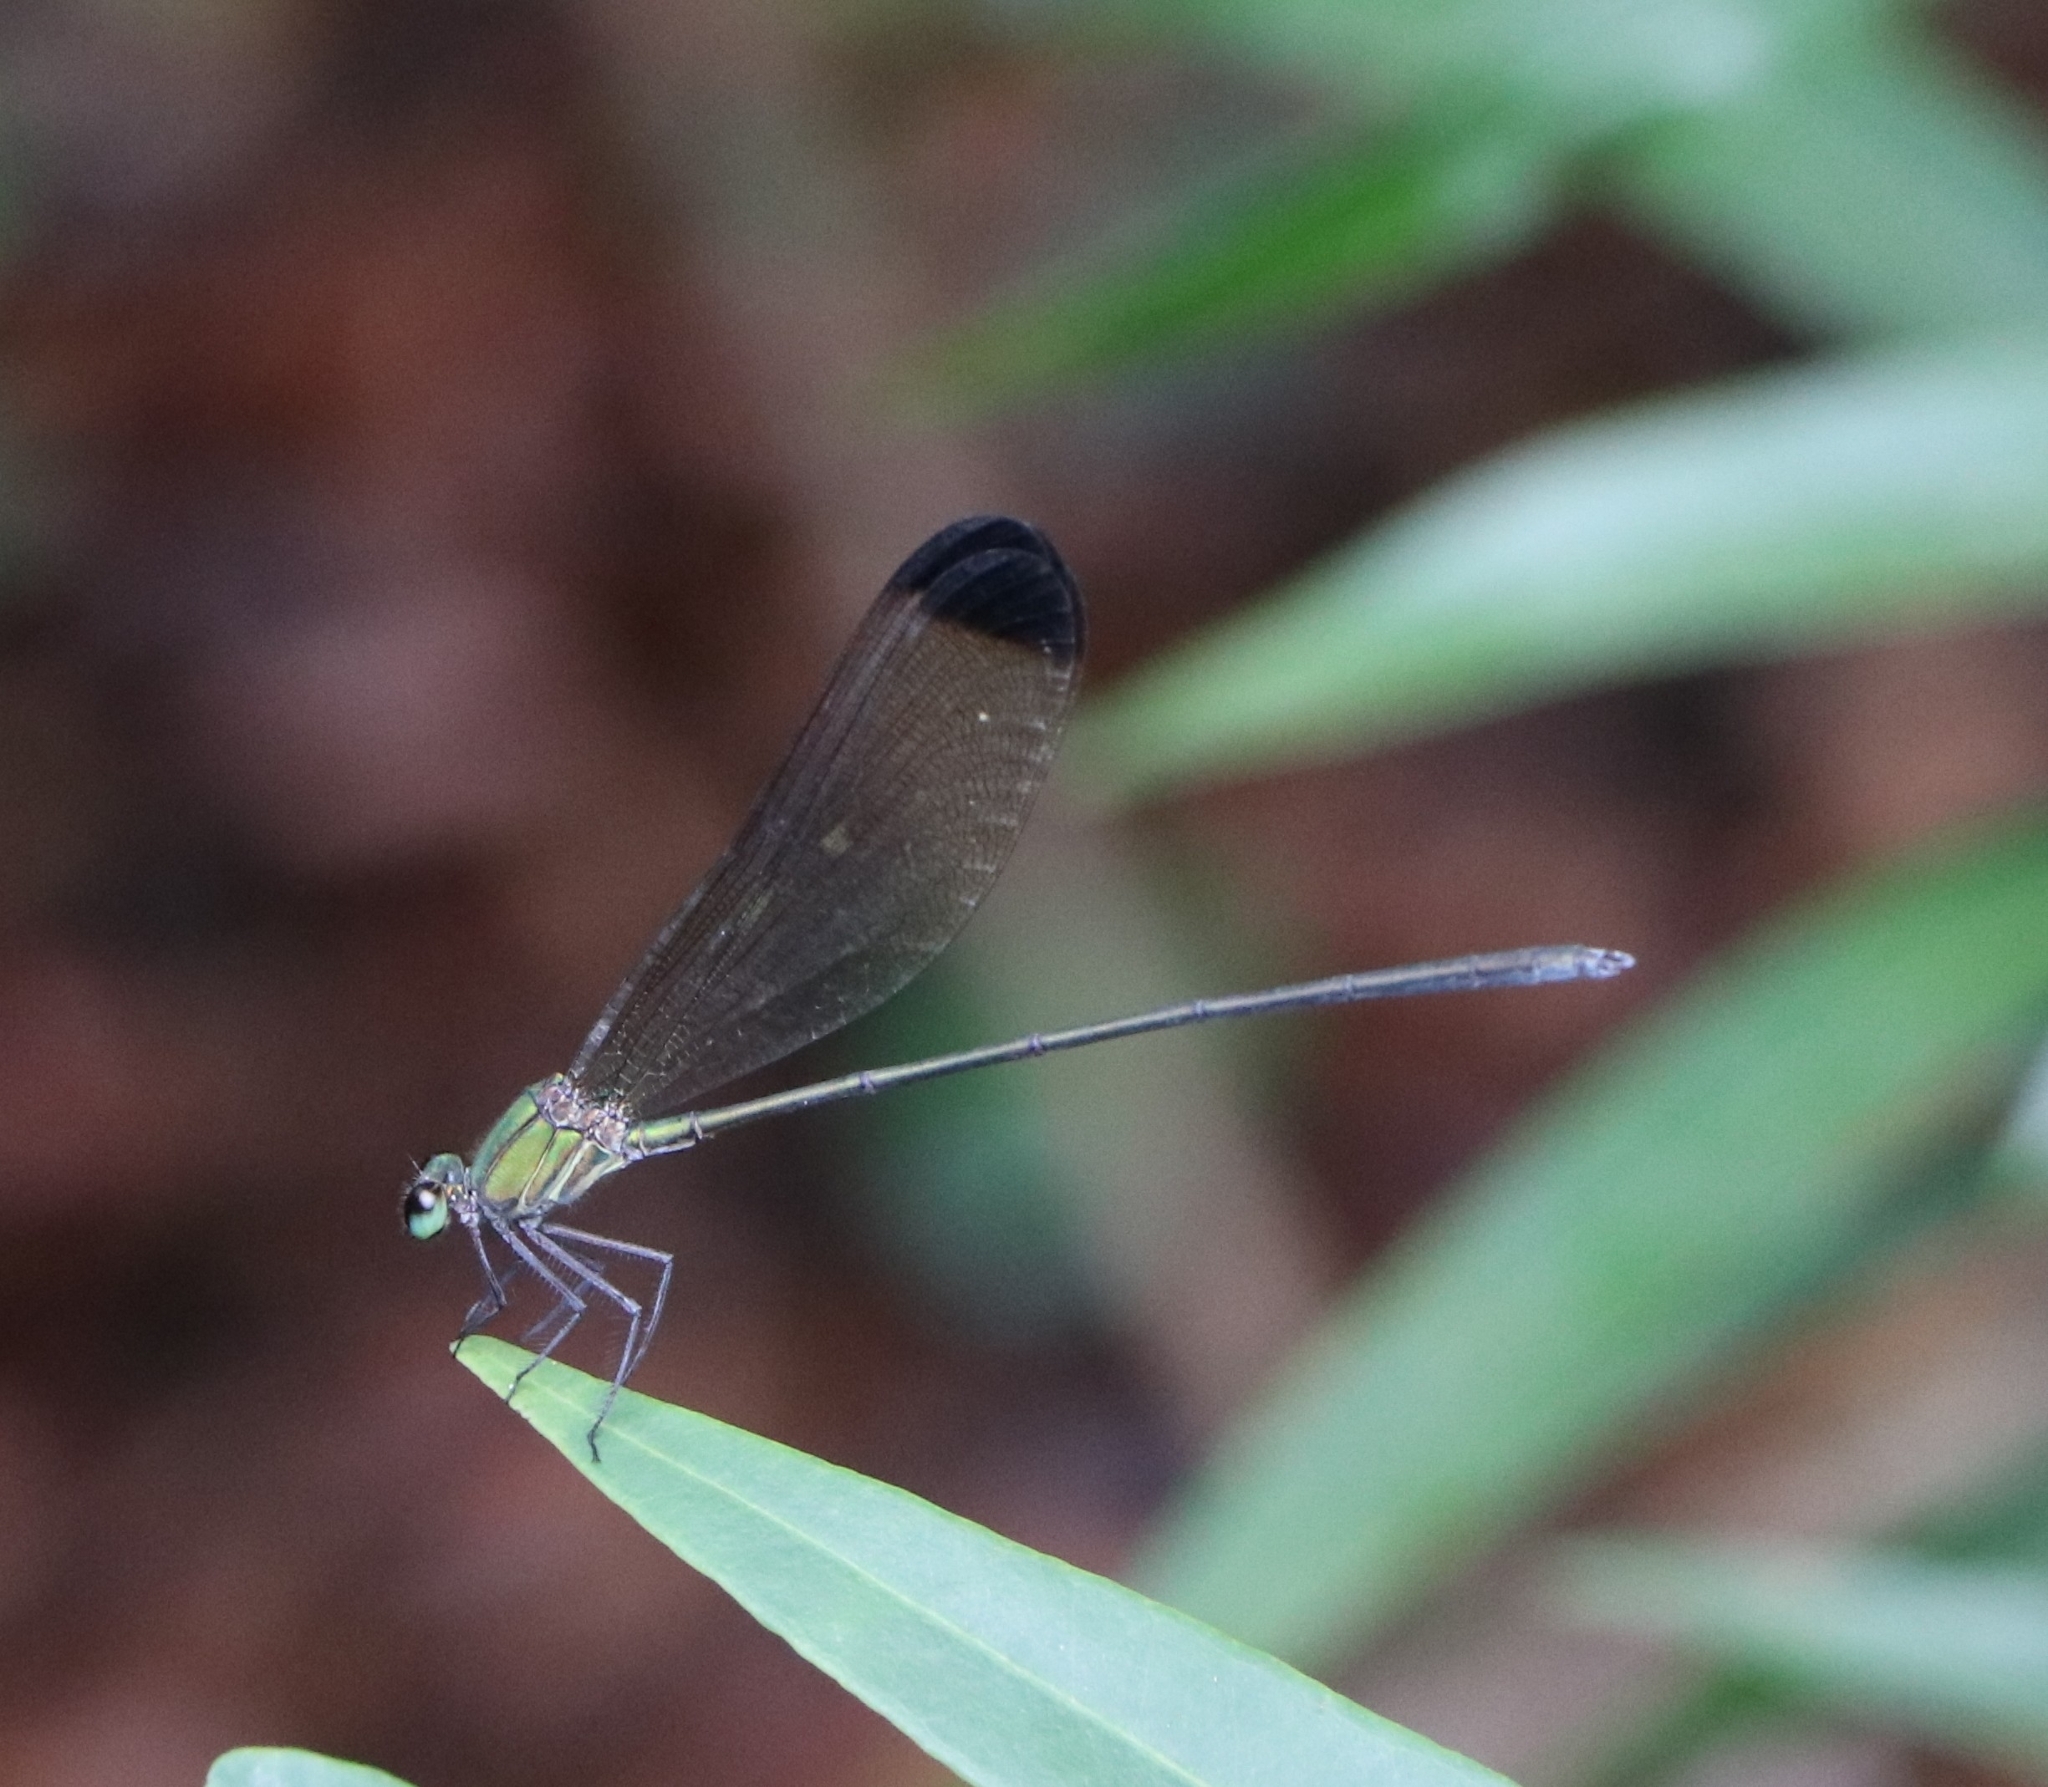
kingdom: Animalia
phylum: Arthropoda
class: Insecta
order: Odonata
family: Calopterygidae
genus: Vestalis
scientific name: Vestalis apicalis
